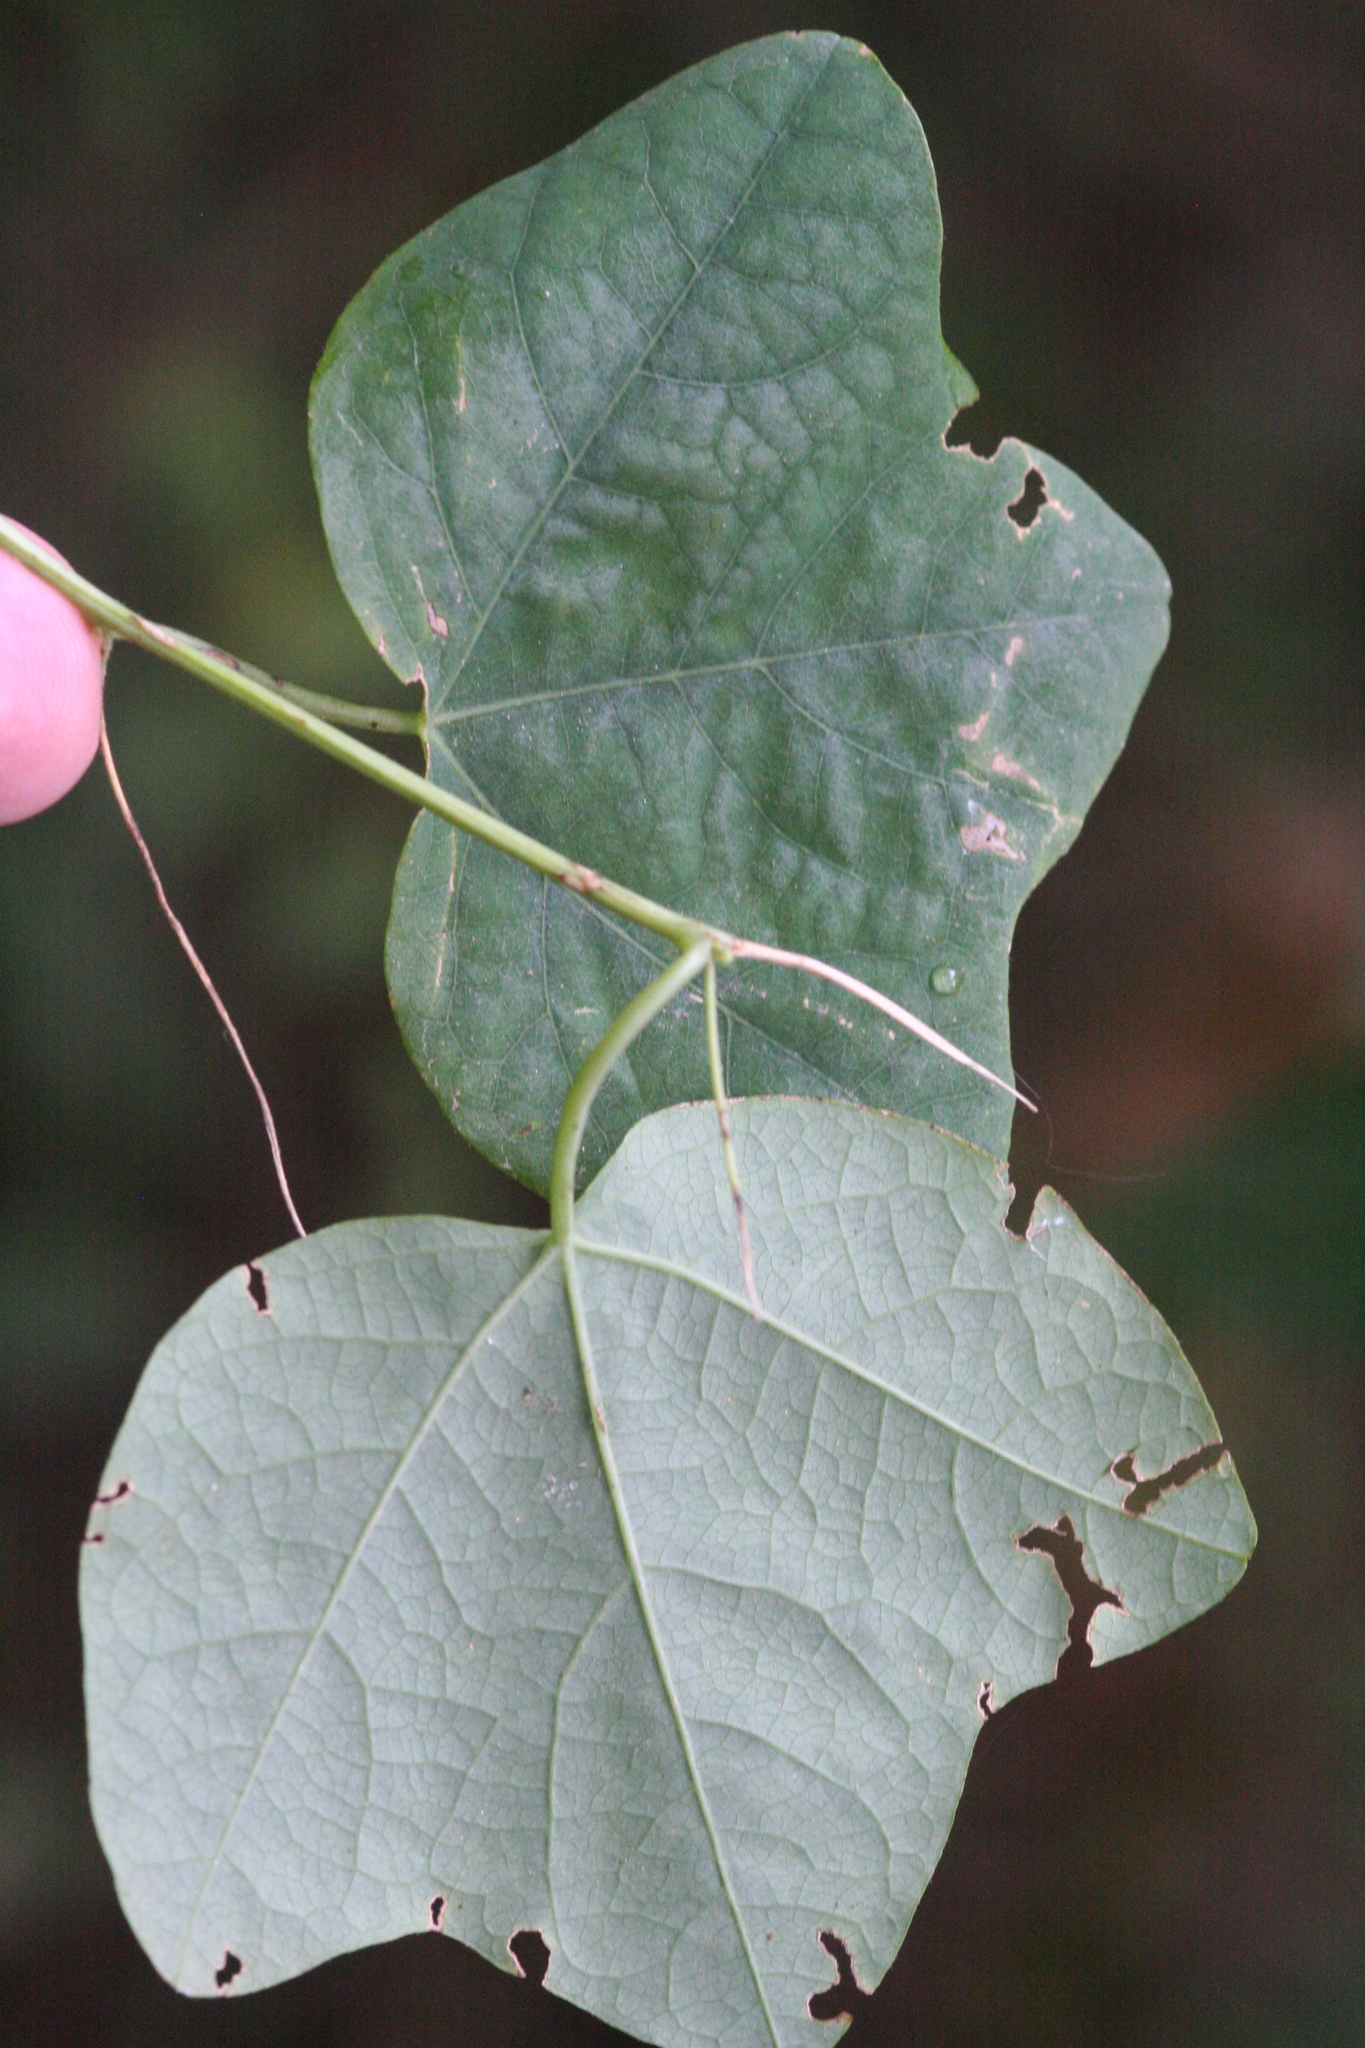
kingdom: Plantae
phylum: Tracheophyta
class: Magnoliopsida
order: Malpighiales
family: Passifloraceae
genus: Passiflora
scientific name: Passiflora lutea
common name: Yellow passionflower
